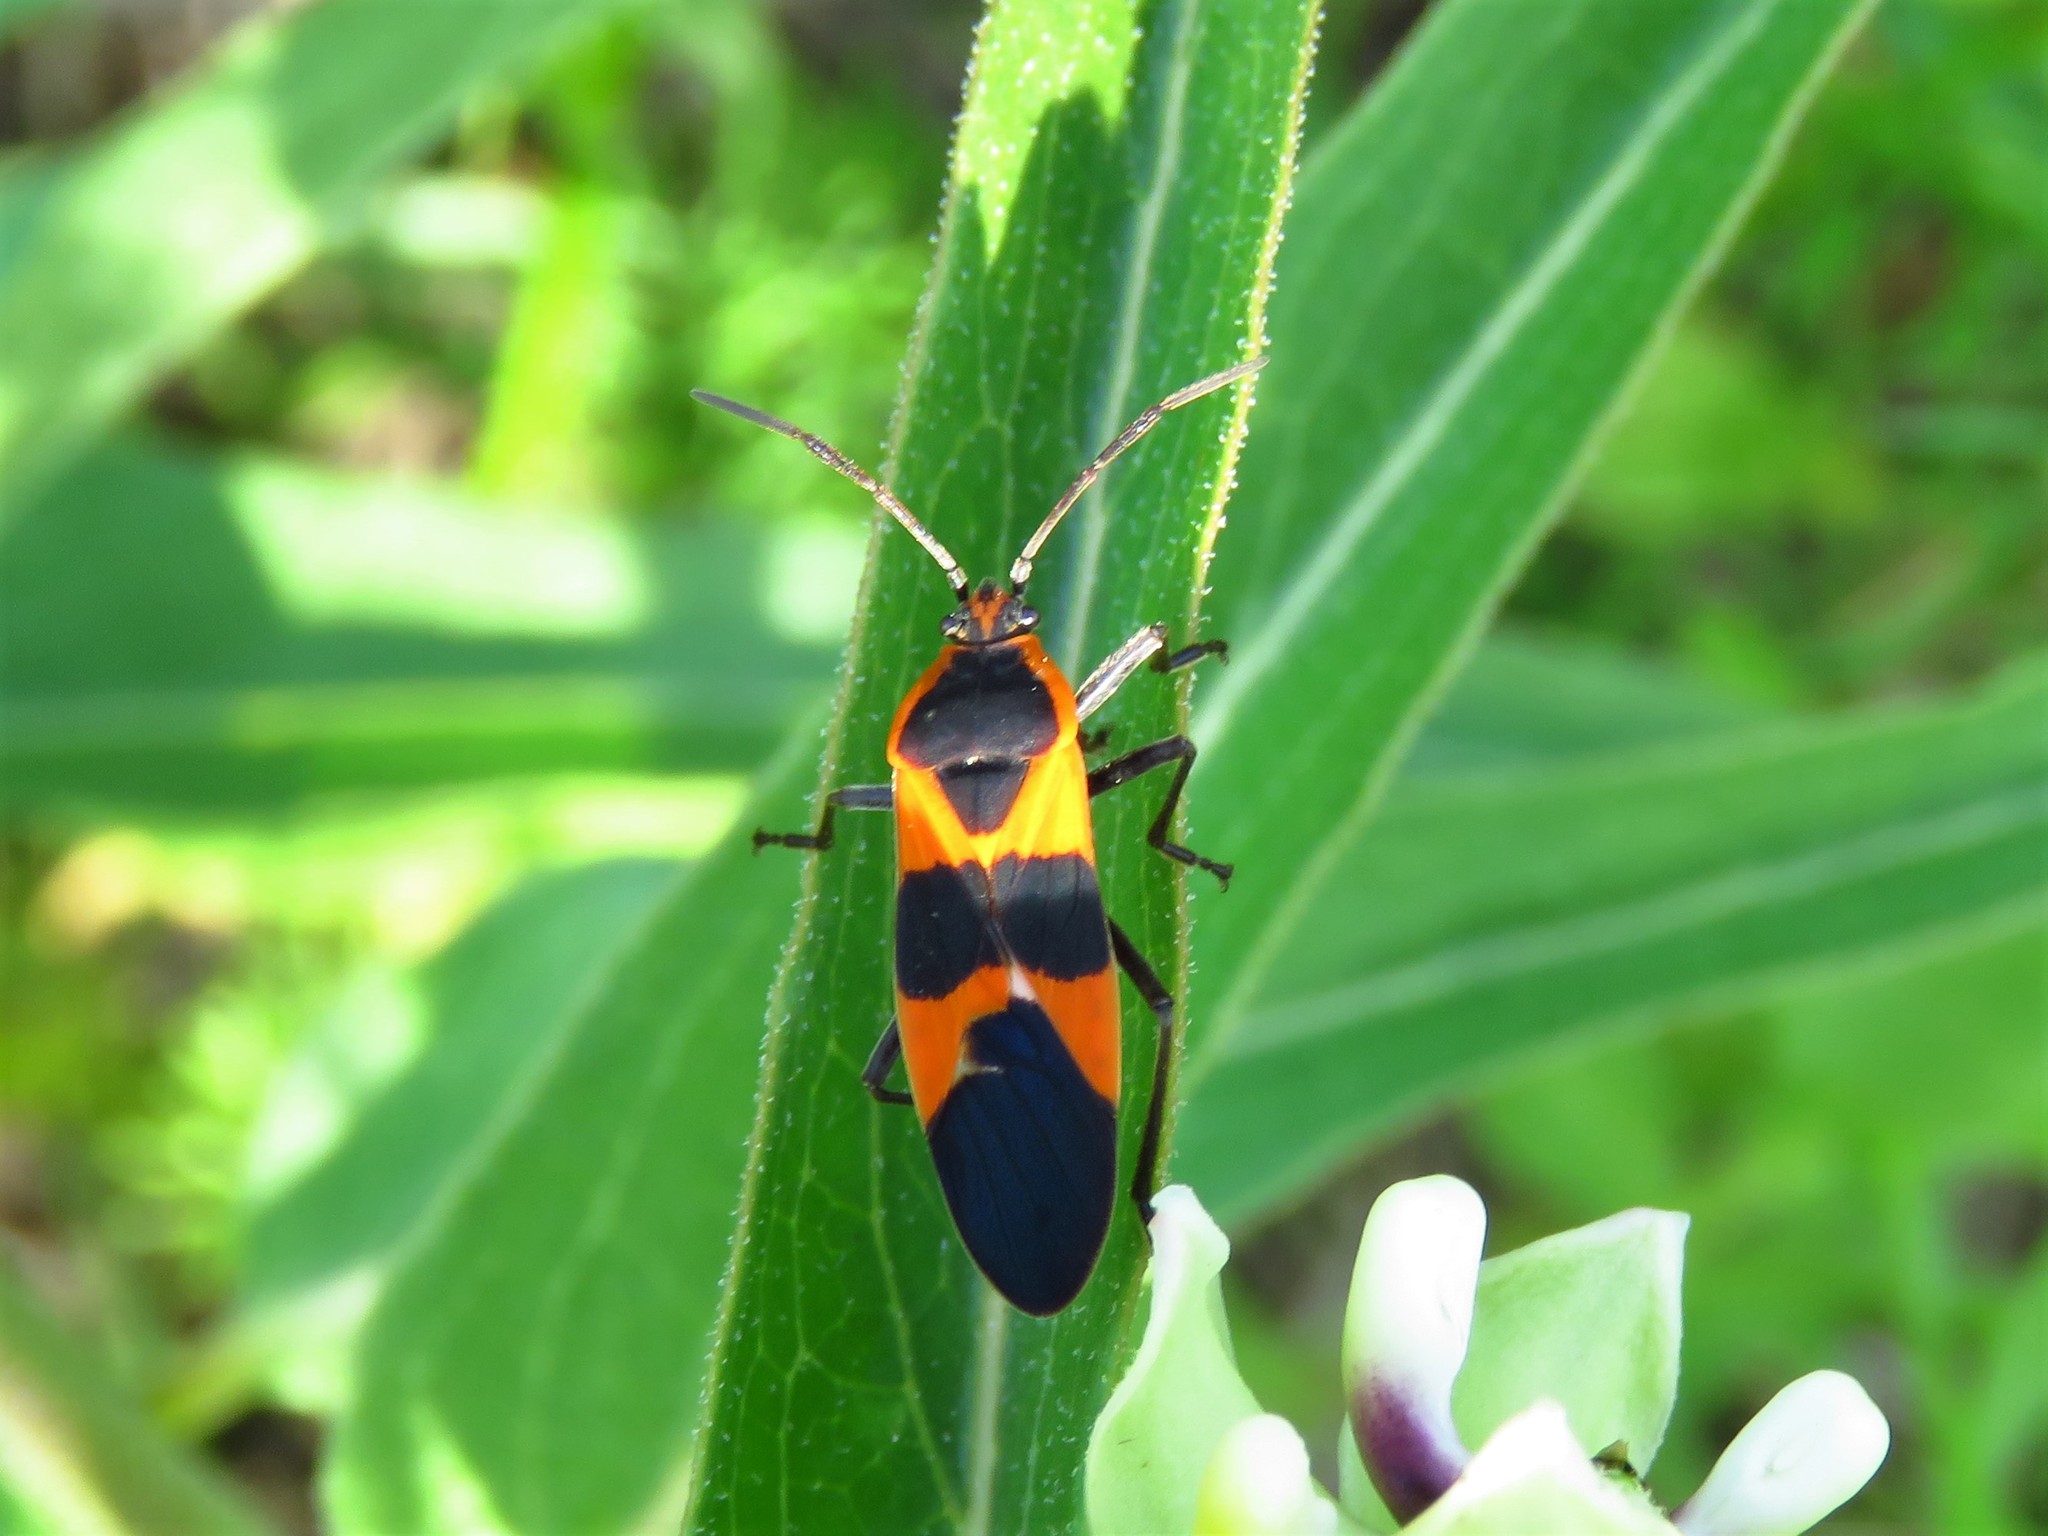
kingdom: Animalia
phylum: Arthropoda
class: Insecta
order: Hemiptera
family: Lygaeidae
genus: Oncopeltus
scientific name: Oncopeltus fasciatus
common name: Large milkweed bug
